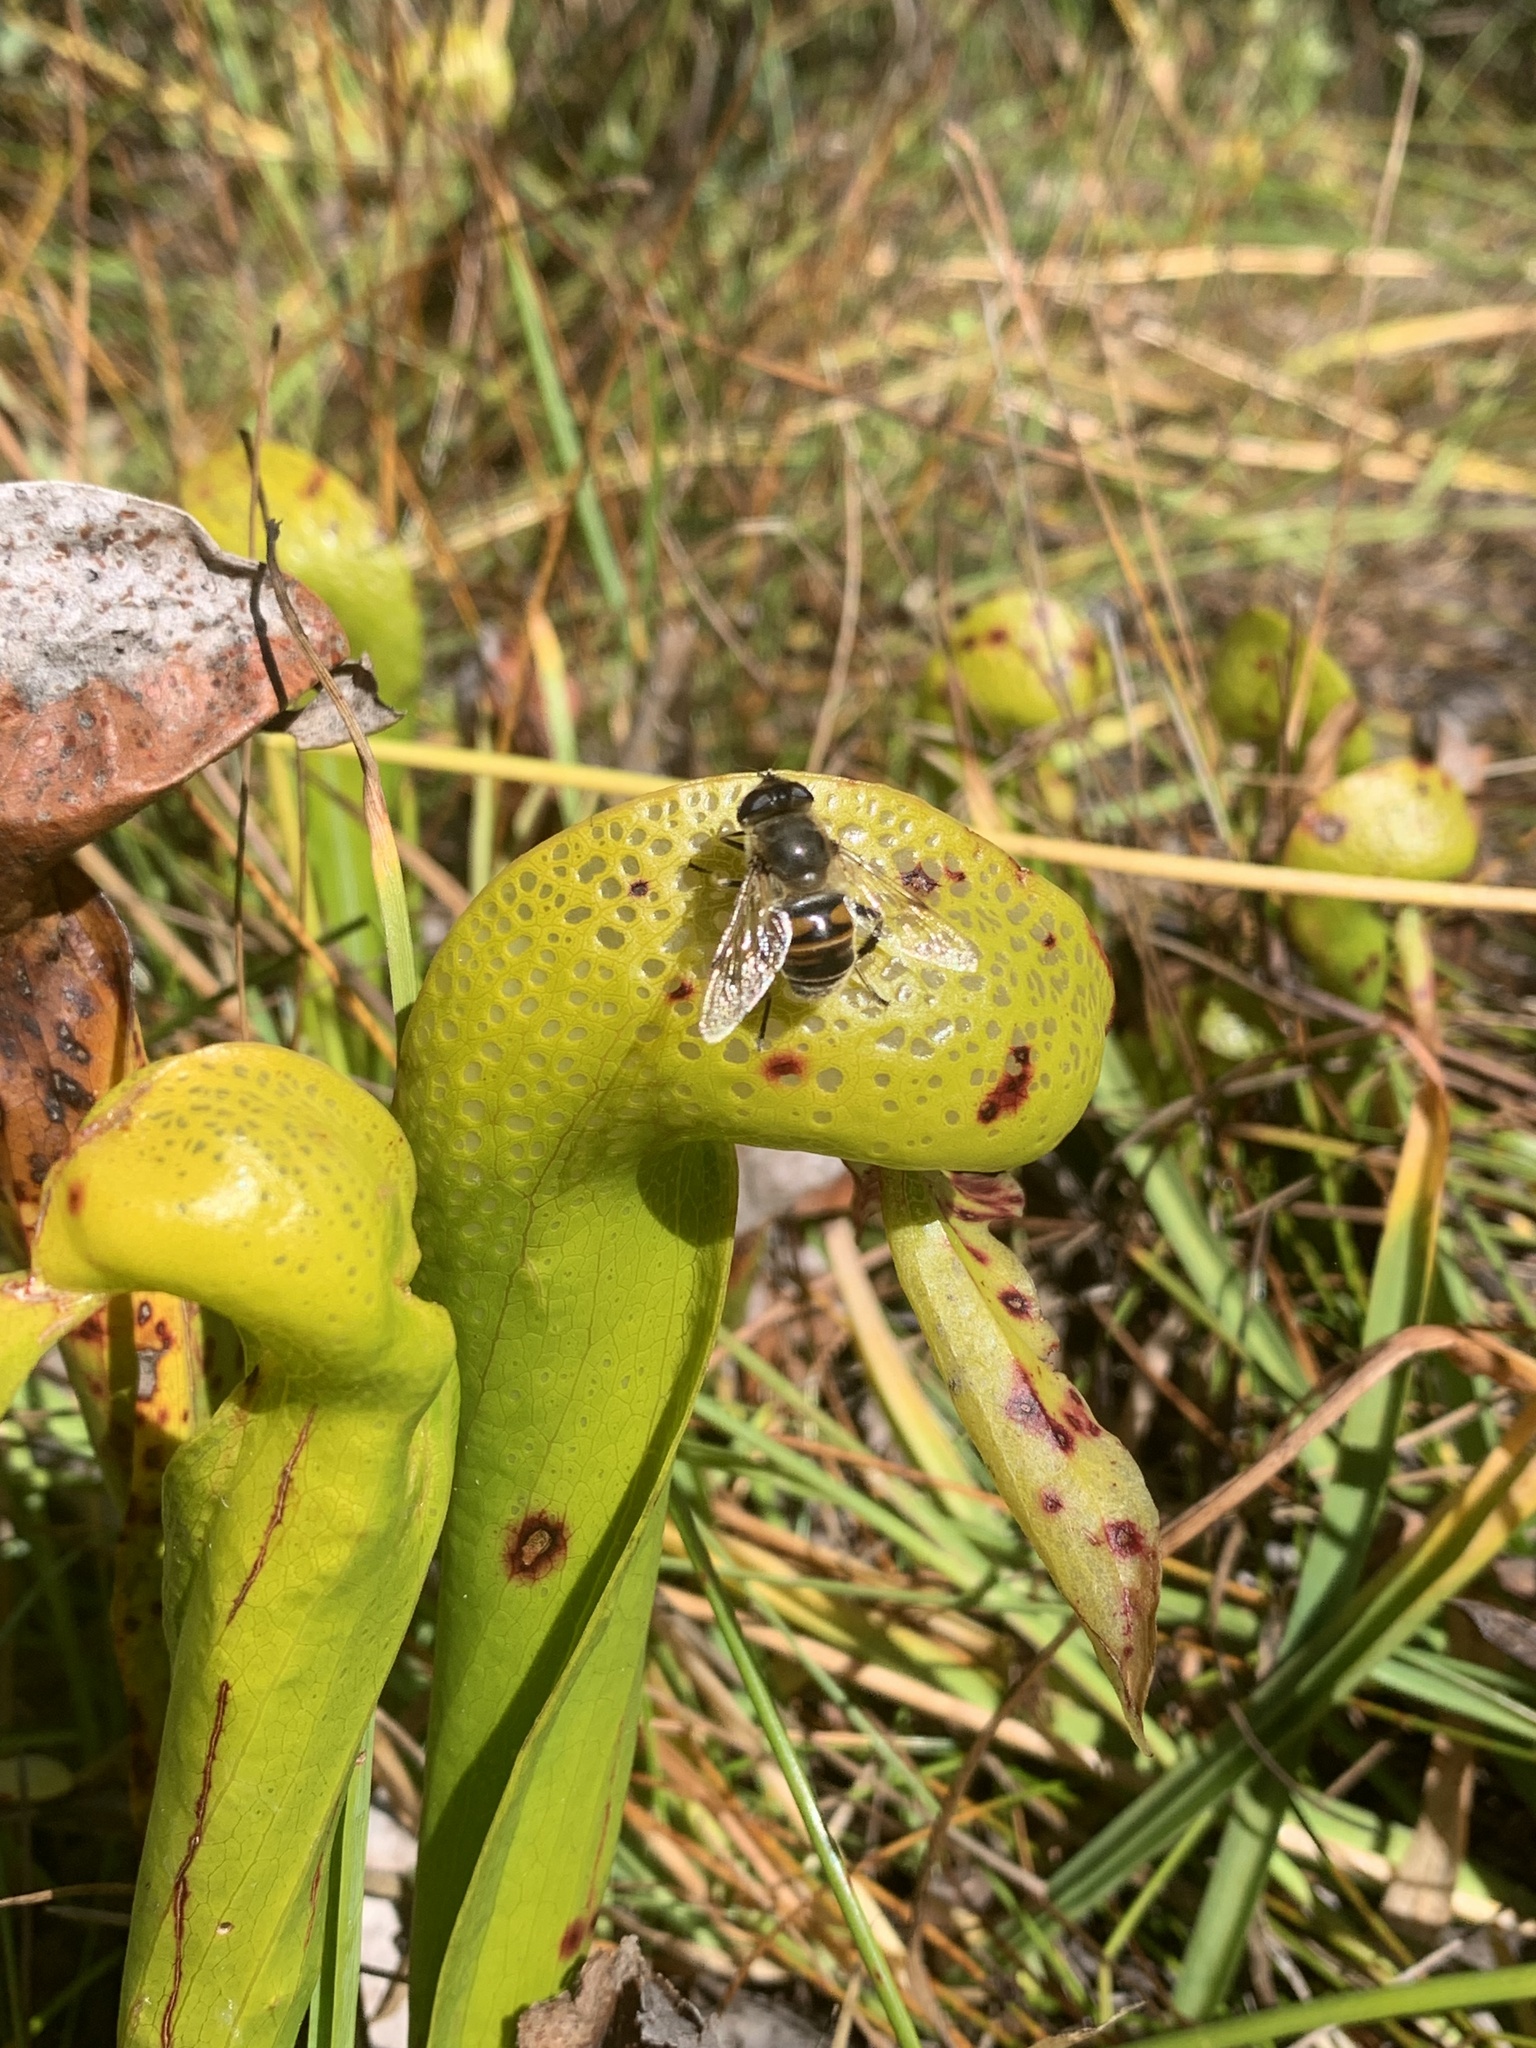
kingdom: Animalia
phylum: Arthropoda
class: Insecta
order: Diptera
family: Syrphidae
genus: Eristalis
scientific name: Eristalis tenax
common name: Drone fly
